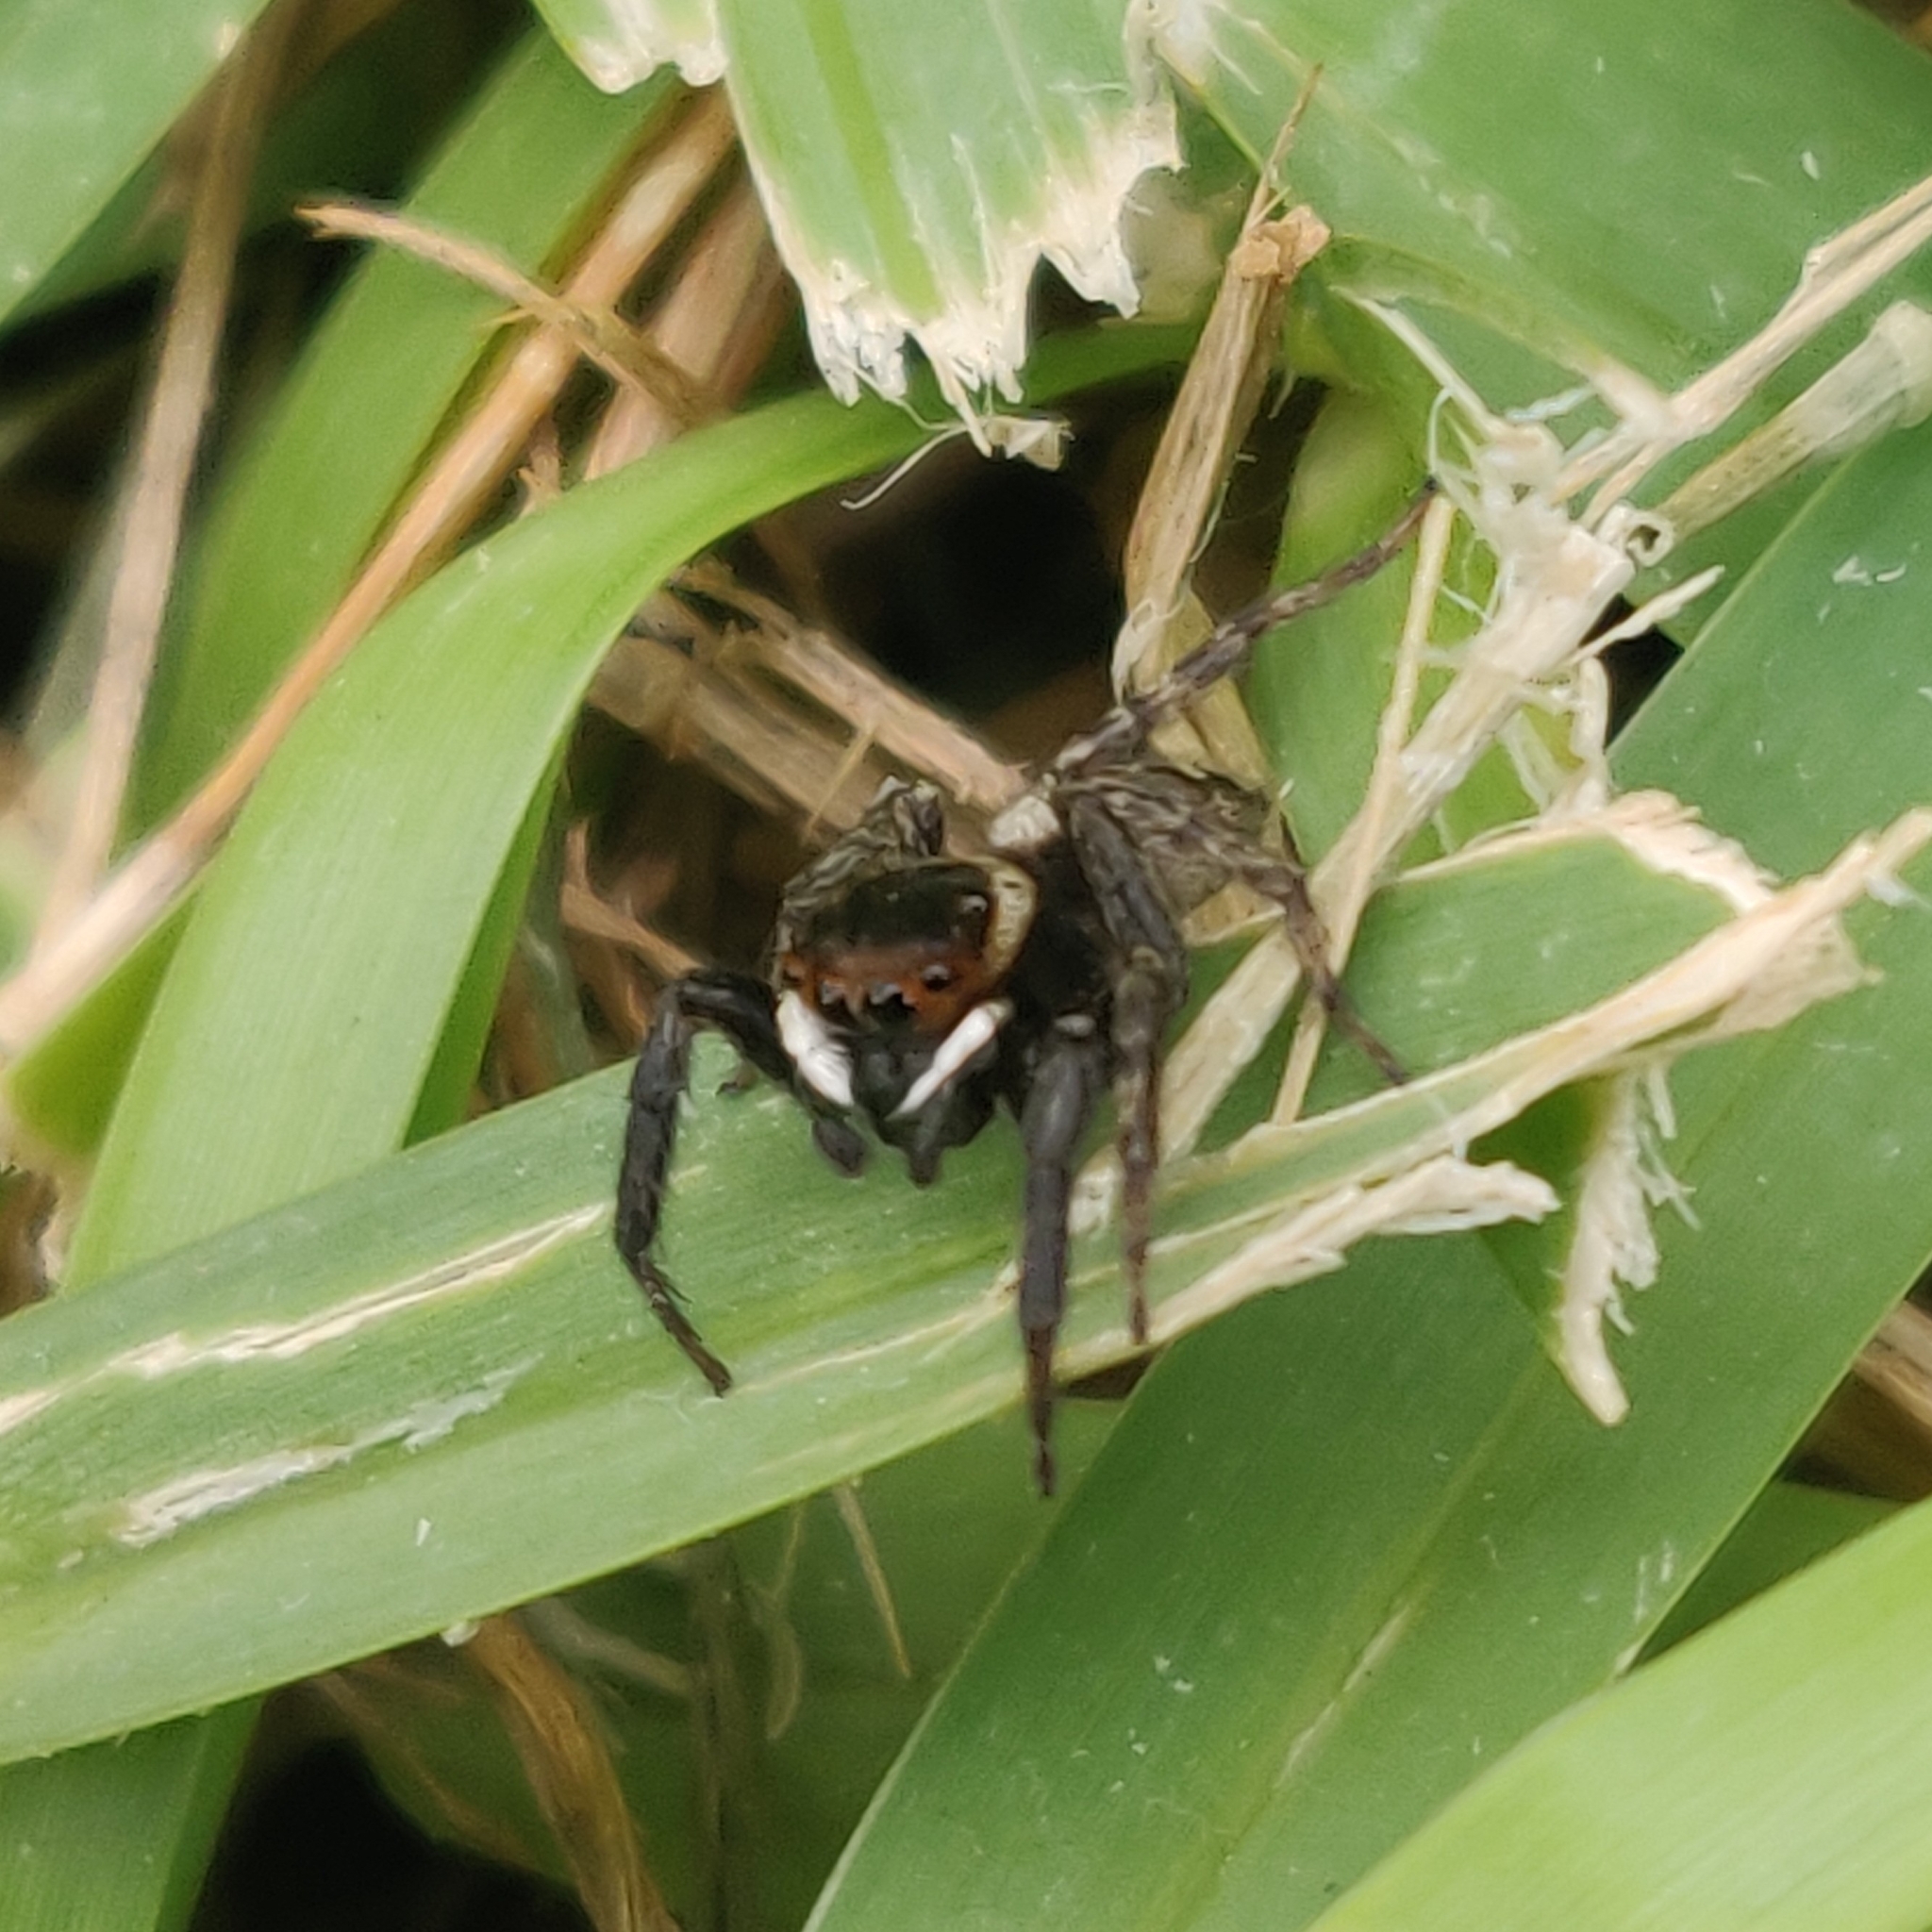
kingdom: Animalia
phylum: Arthropoda
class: Arachnida
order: Araneae
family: Salticidae
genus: Hasarius
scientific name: Hasarius adansoni
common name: Jumping spider
